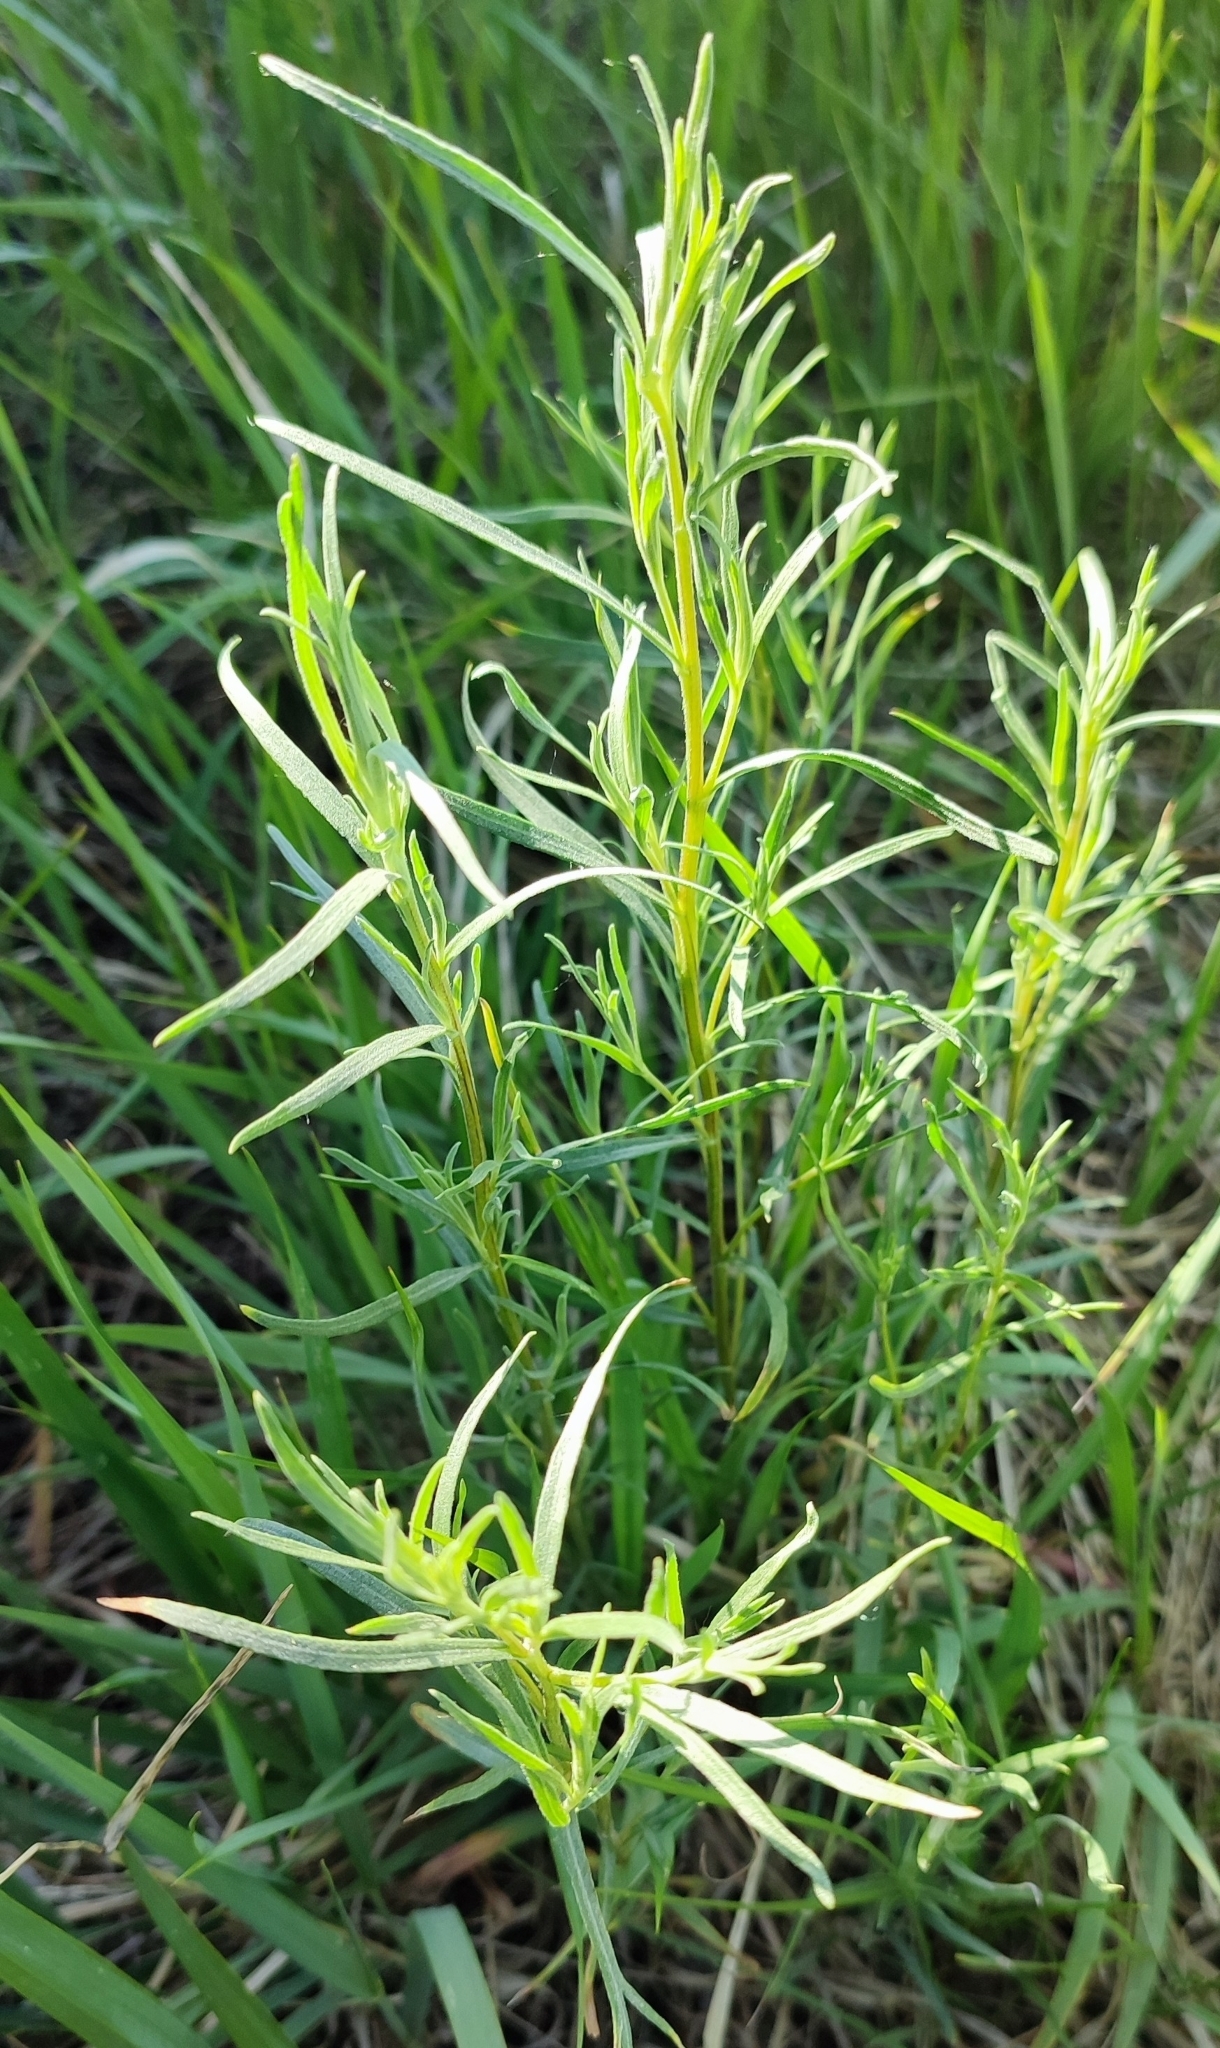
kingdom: Plantae
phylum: Tracheophyta
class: Magnoliopsida
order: Asterales
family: Asteraceae
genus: Artemisia
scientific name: Artemisia dracunculus
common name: Tarragon
